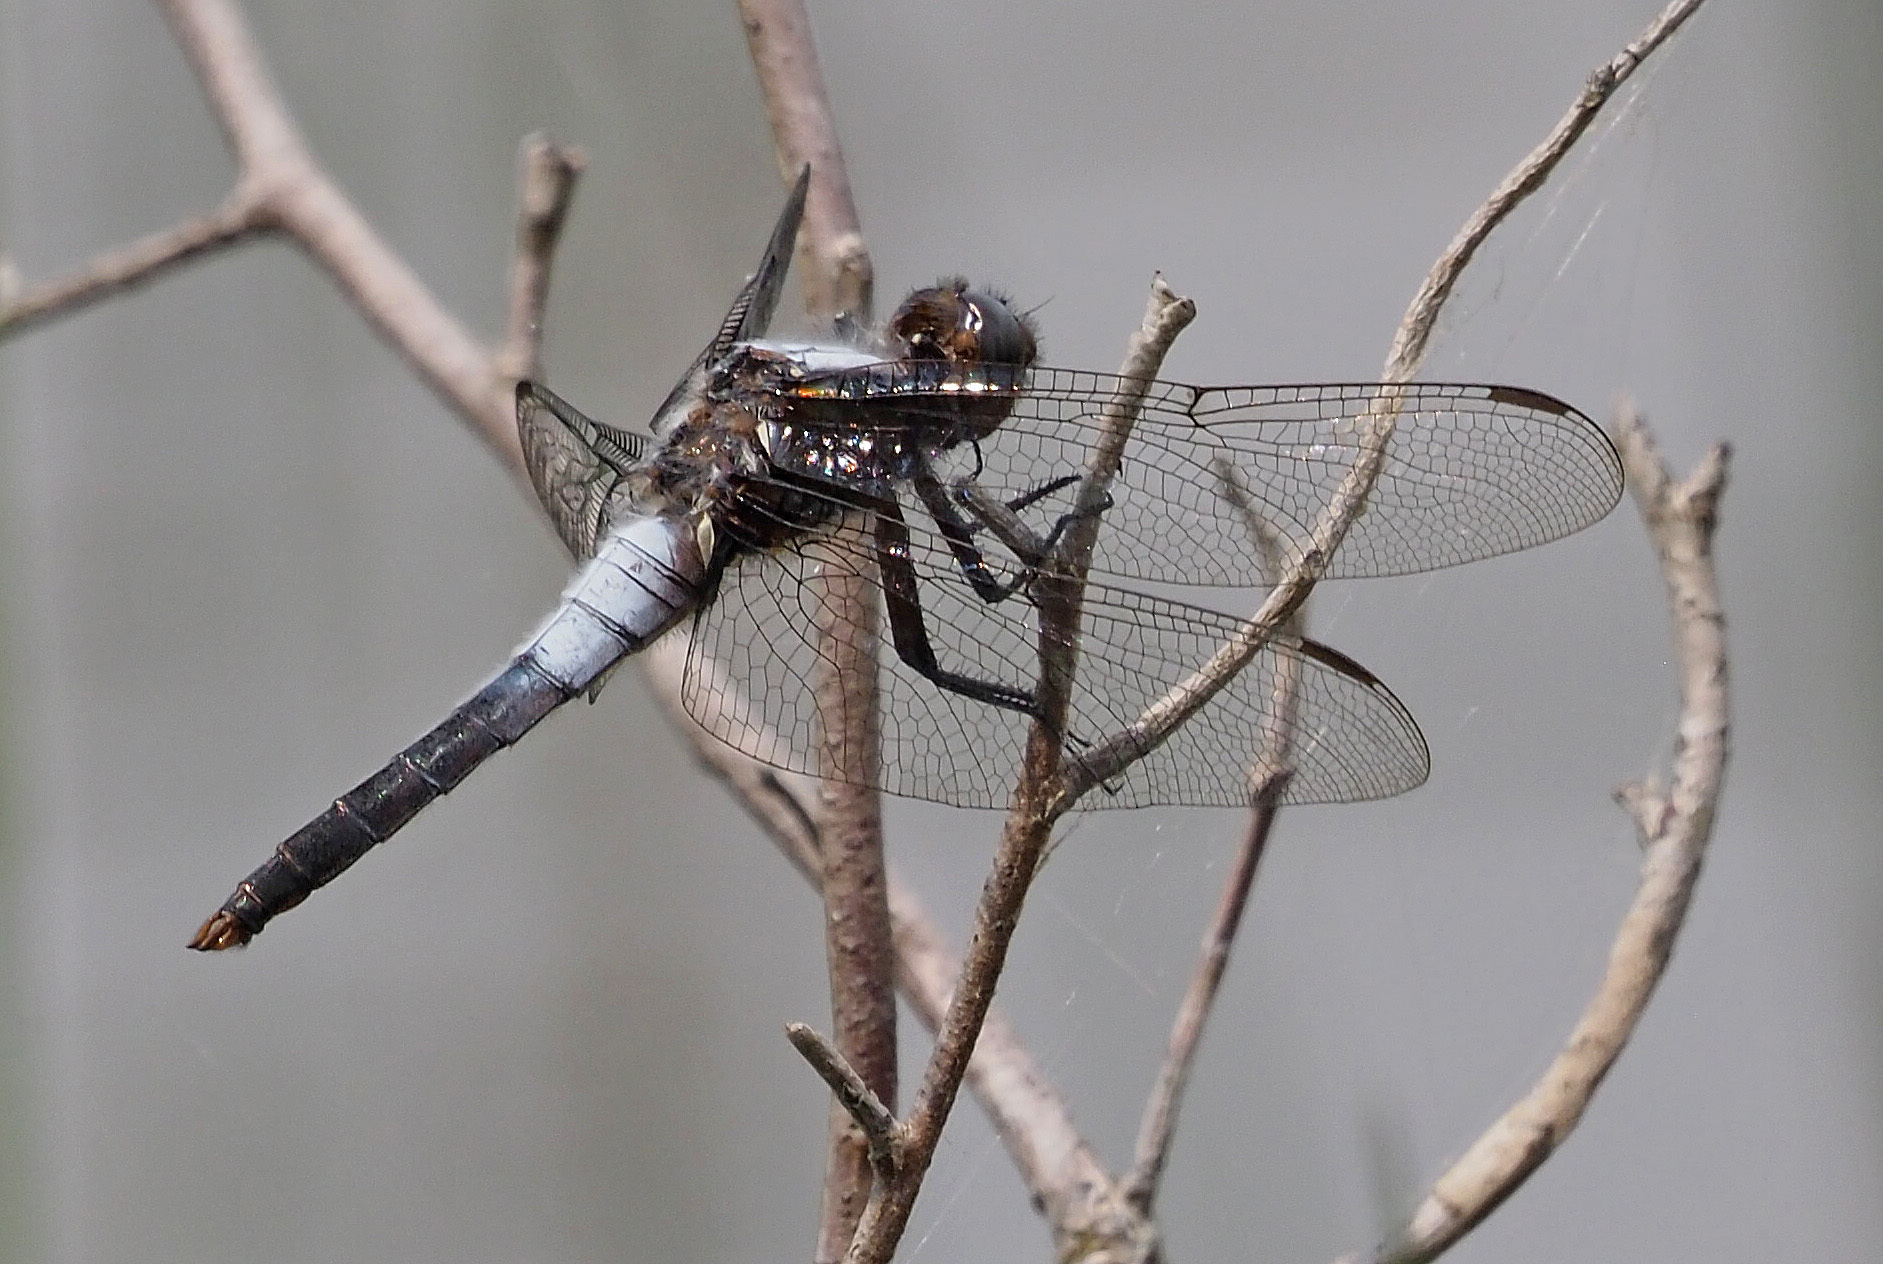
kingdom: Animalia
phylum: Arthropoda
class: Insecta
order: Odonata
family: Libellulidae
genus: Ladona
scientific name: Ladona julia
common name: Chalk-fronted corporal
